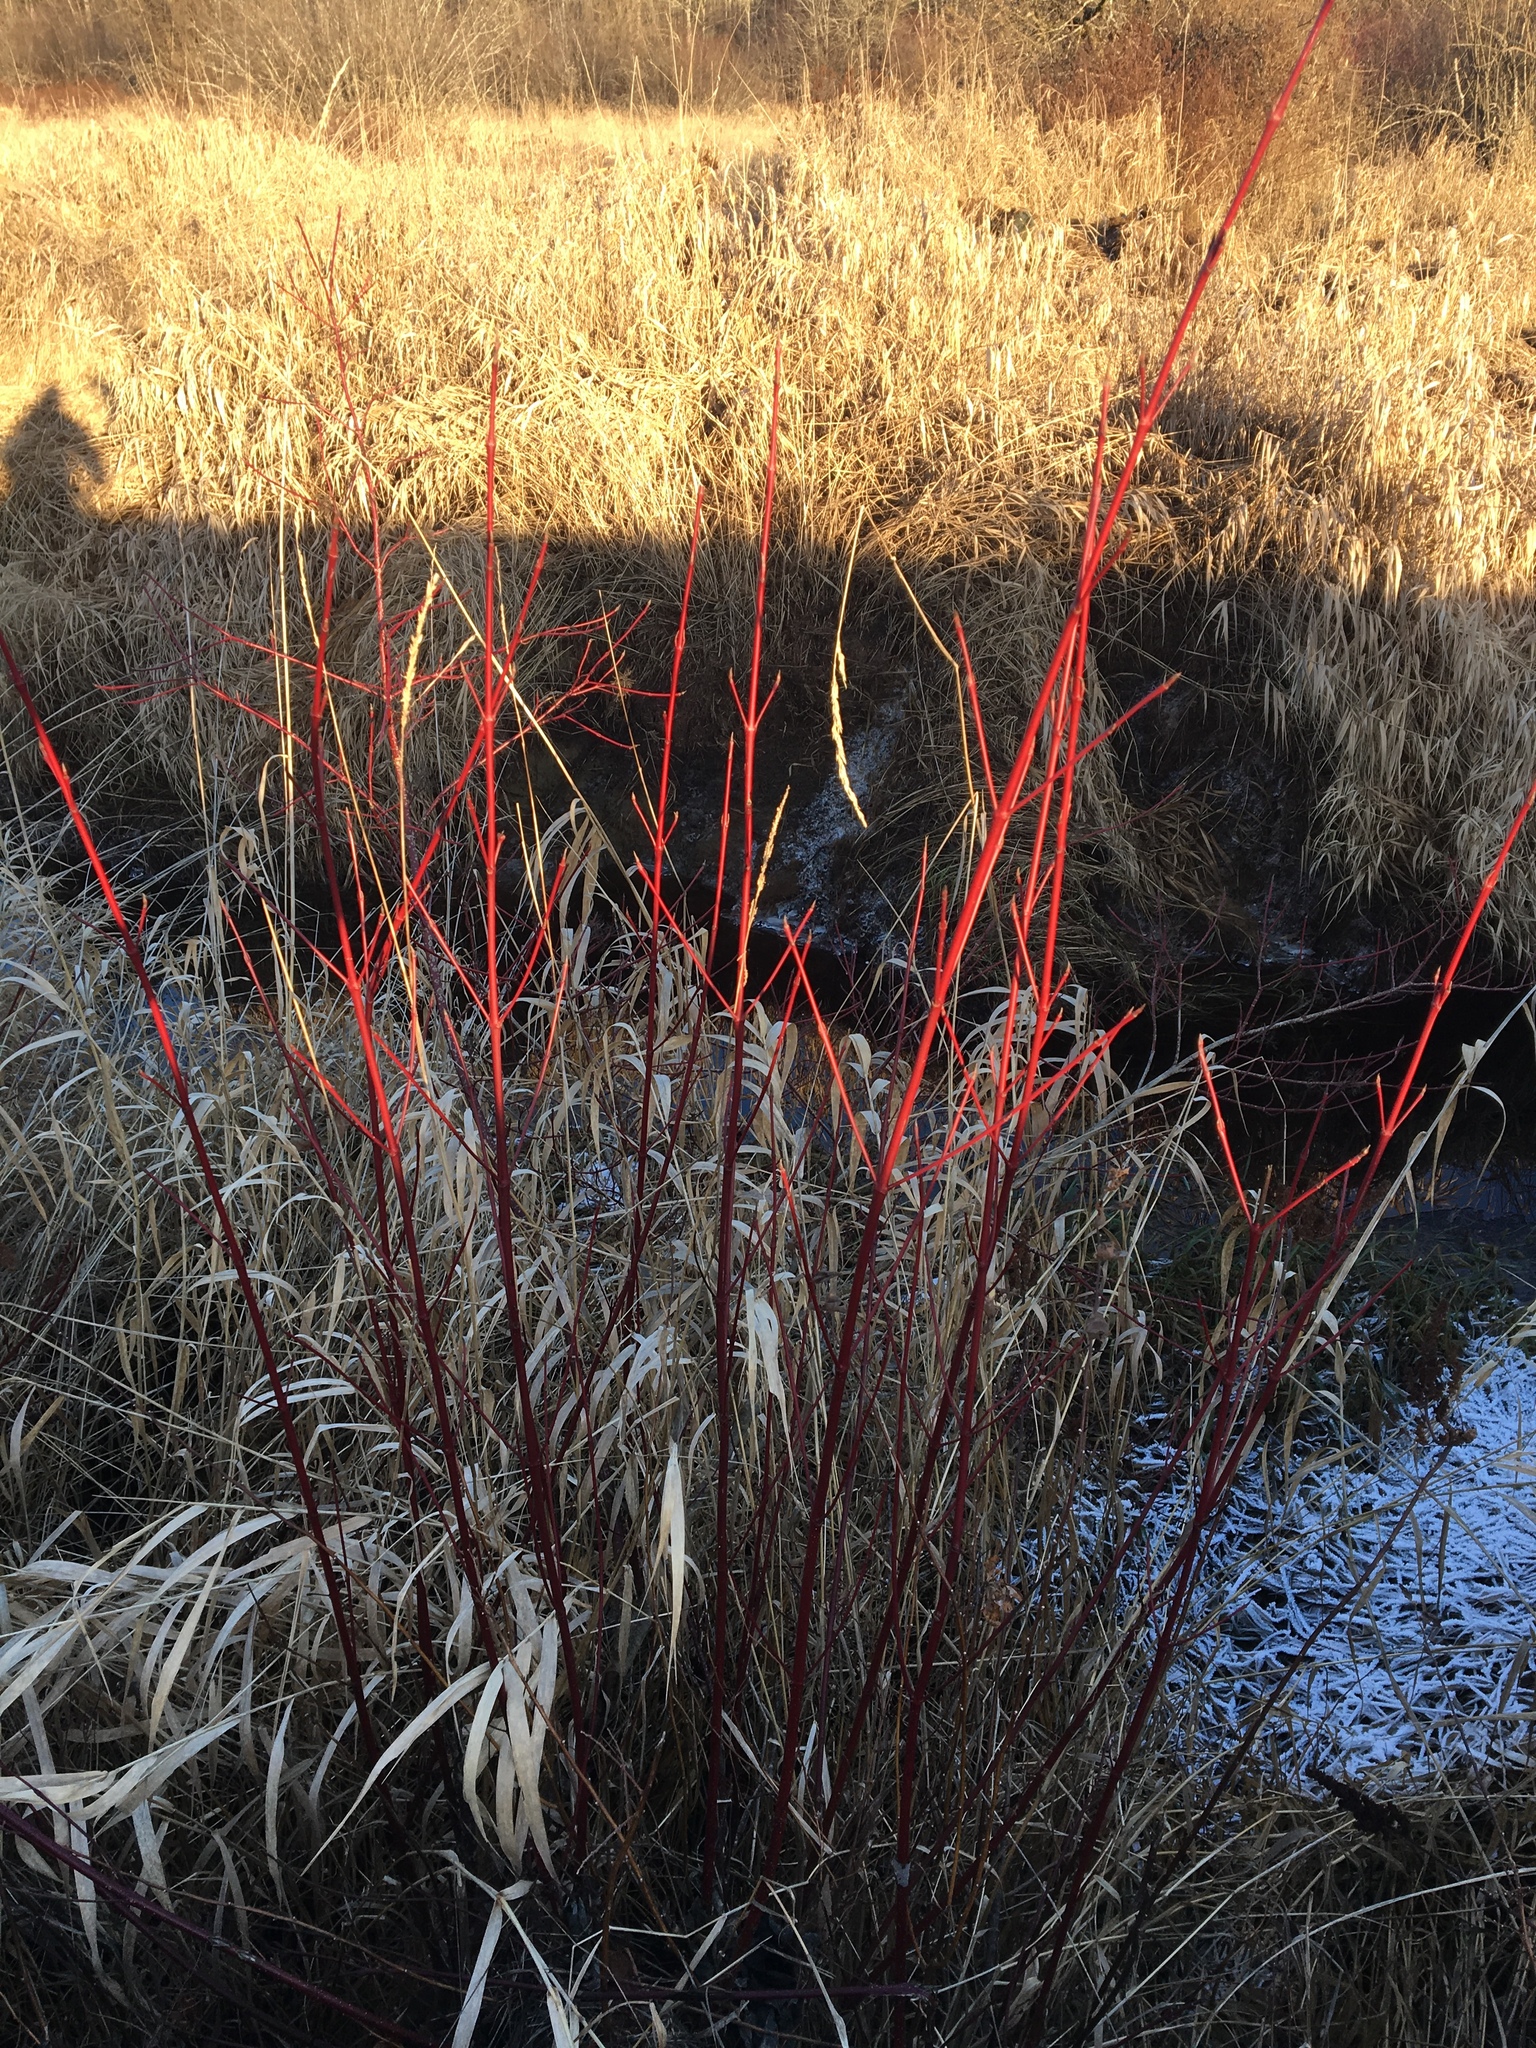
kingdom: Plantae
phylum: Tracheophyta
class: Magnoliopsida
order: Cornales
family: Cornaceae
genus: Cornus
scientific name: Cornus sericea
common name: Red-osier dogwood
